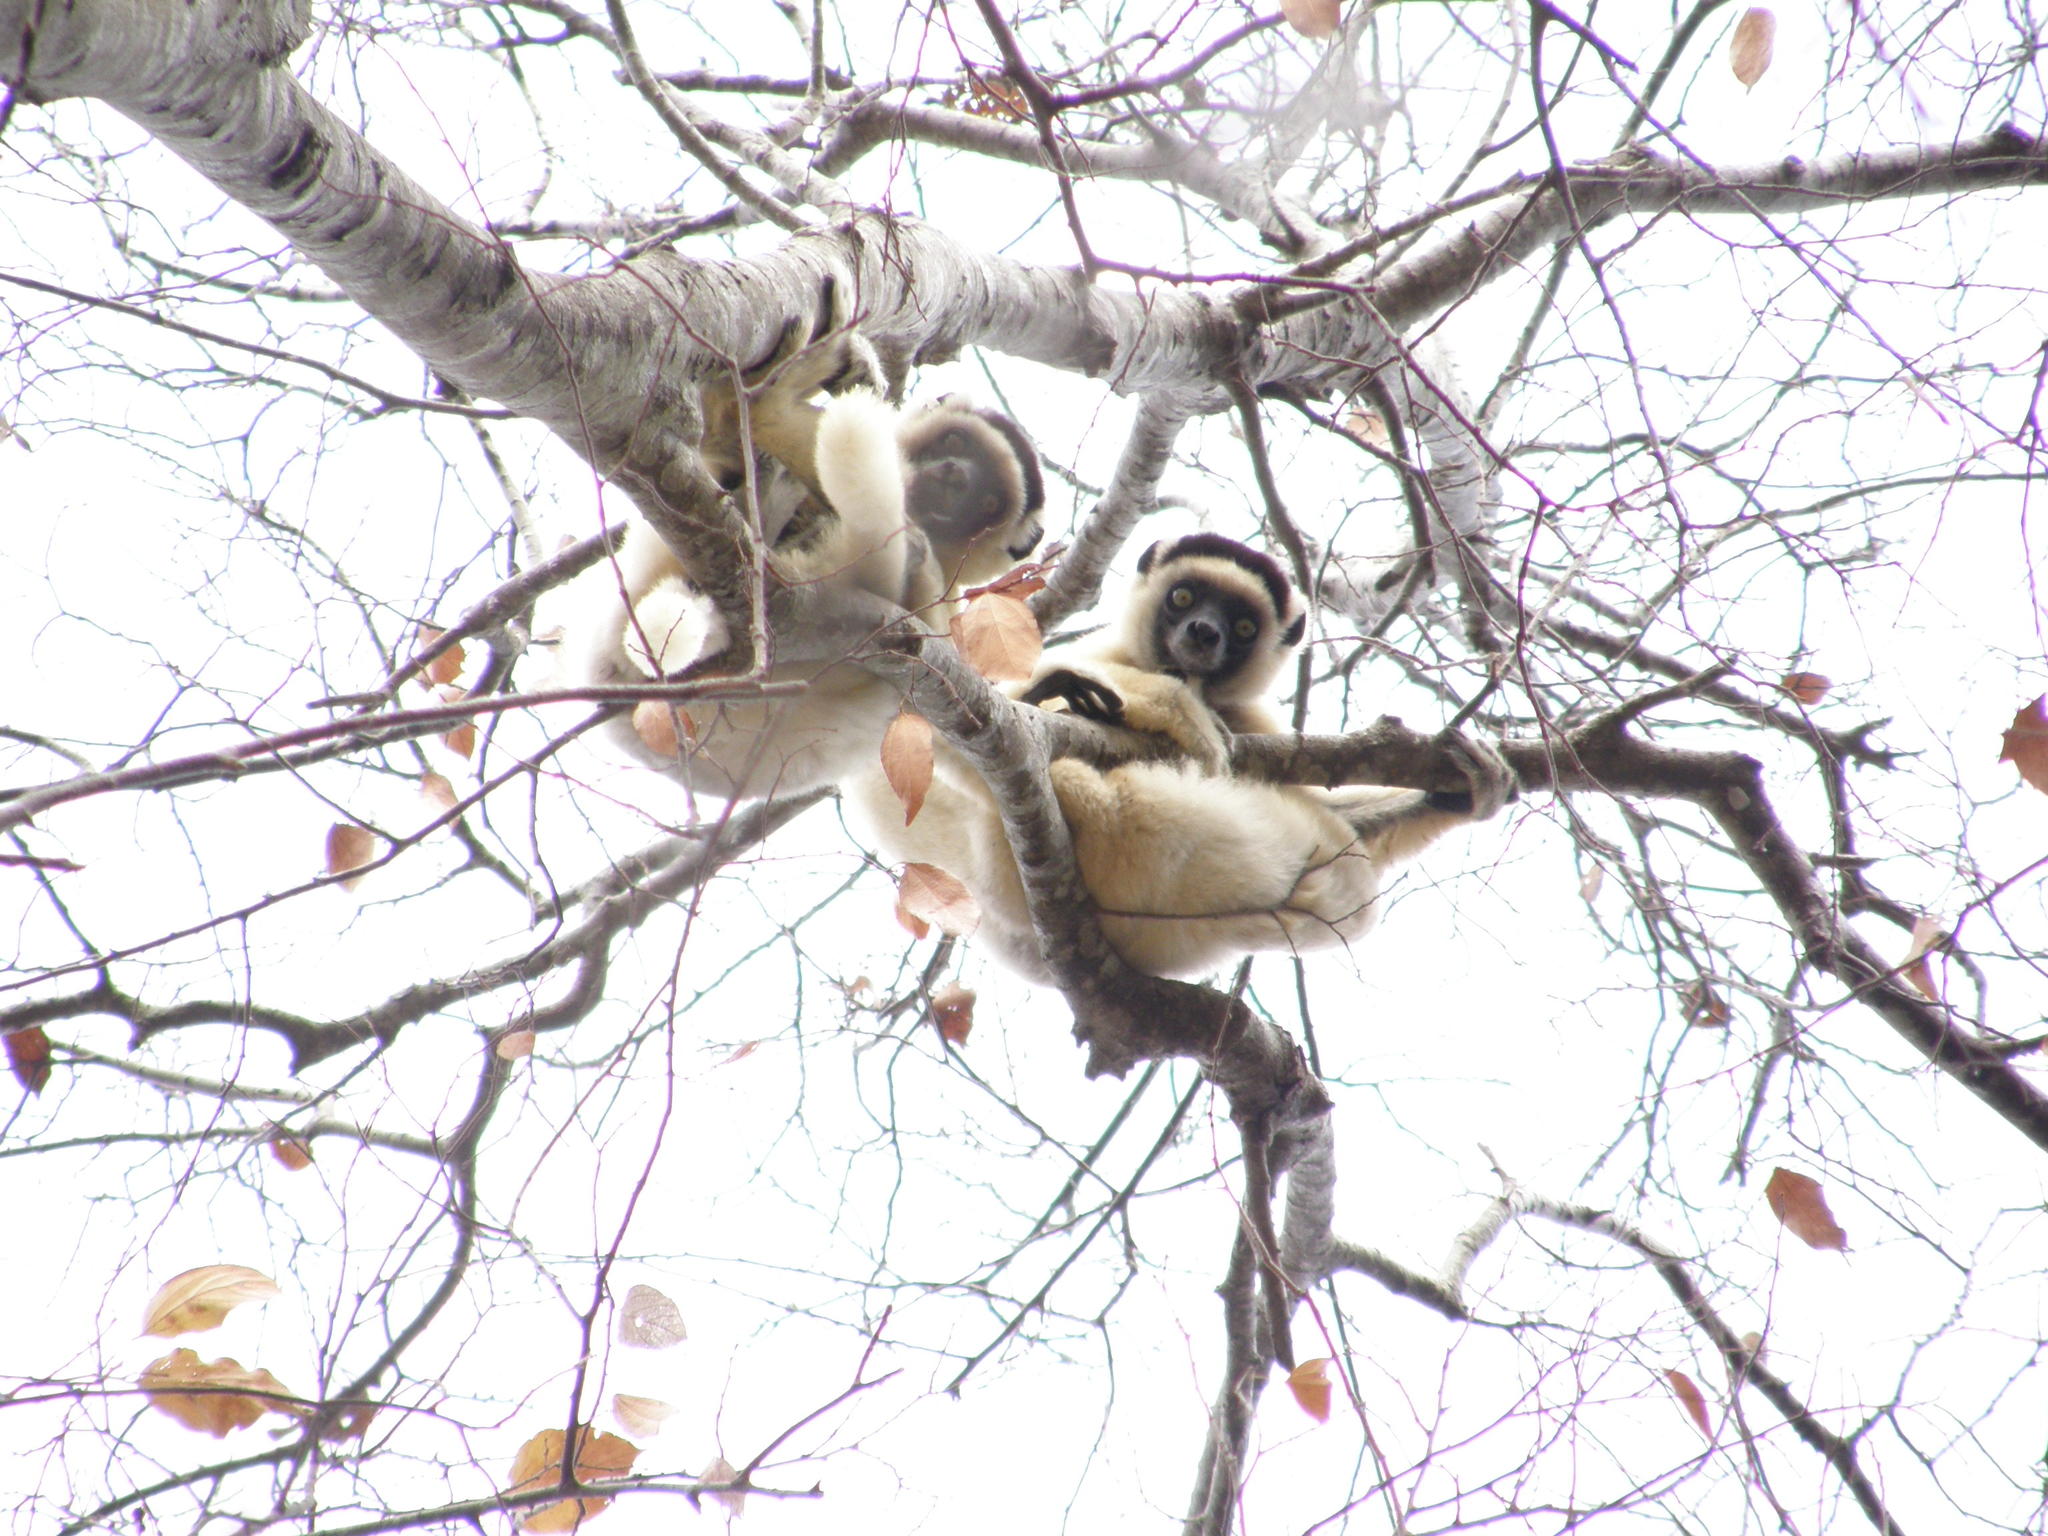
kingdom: Animalia
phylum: Chordata
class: Mammalia
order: Primates
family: Indriidae
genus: Propithecus
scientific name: Propithecus verreauxi
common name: Verreaux's sifaka
